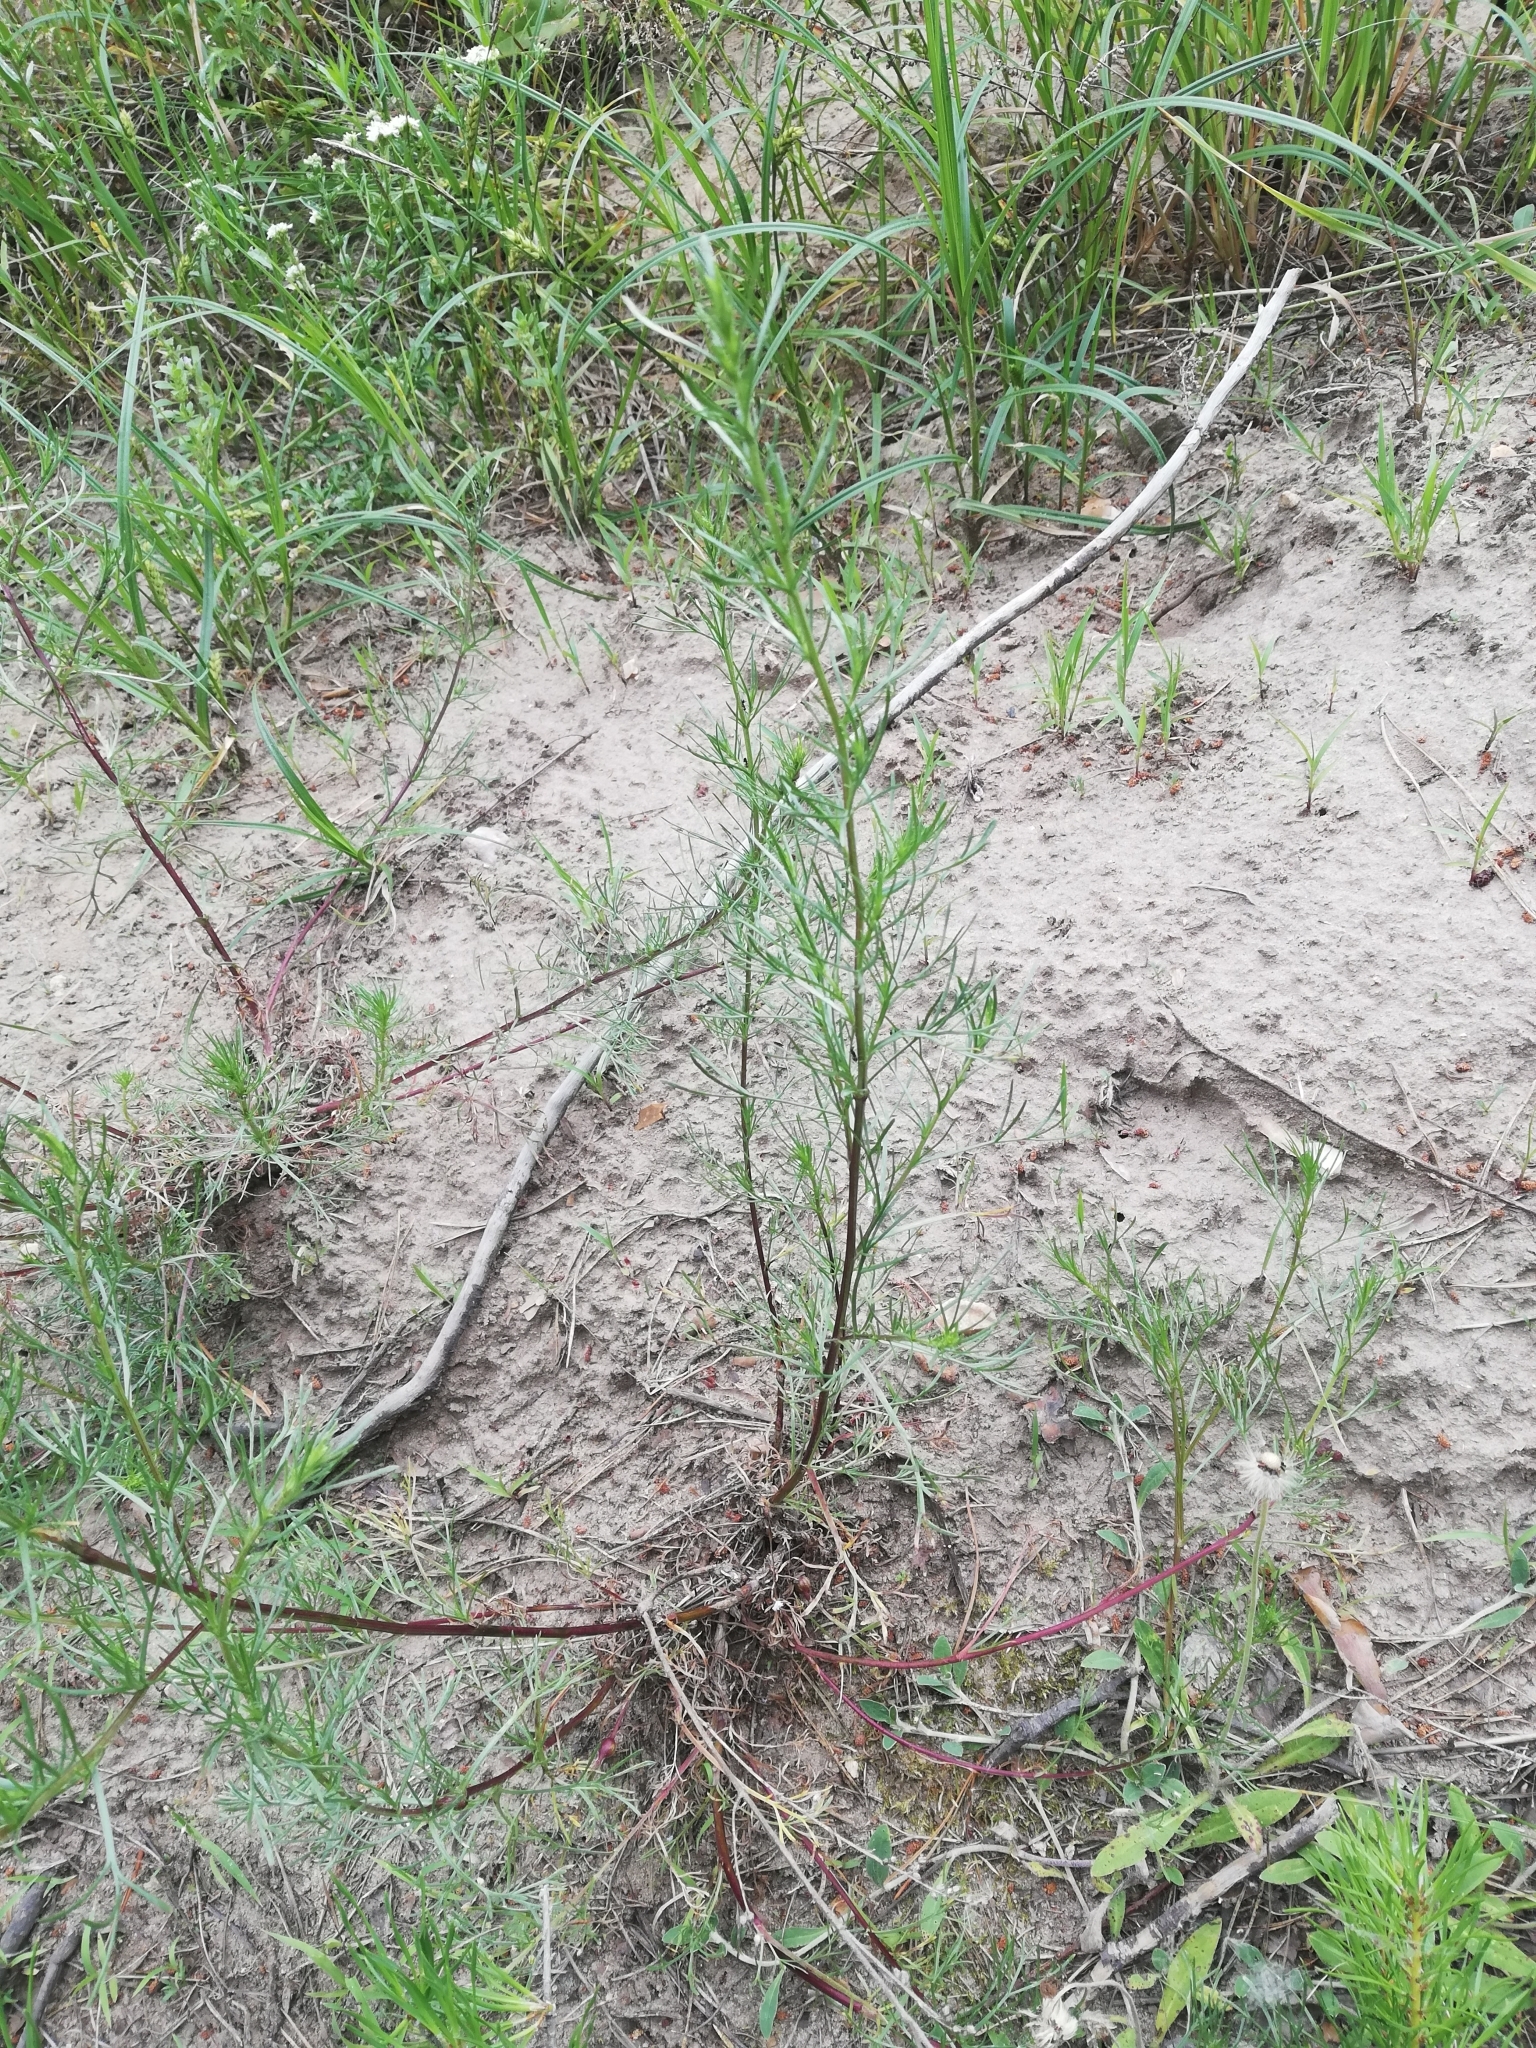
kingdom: Plantae
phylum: Tracheophyta
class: Magnoliopsida
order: Asterales
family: Asteraceae
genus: Artemisia
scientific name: Artemisia campestris
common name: Field wormwood
